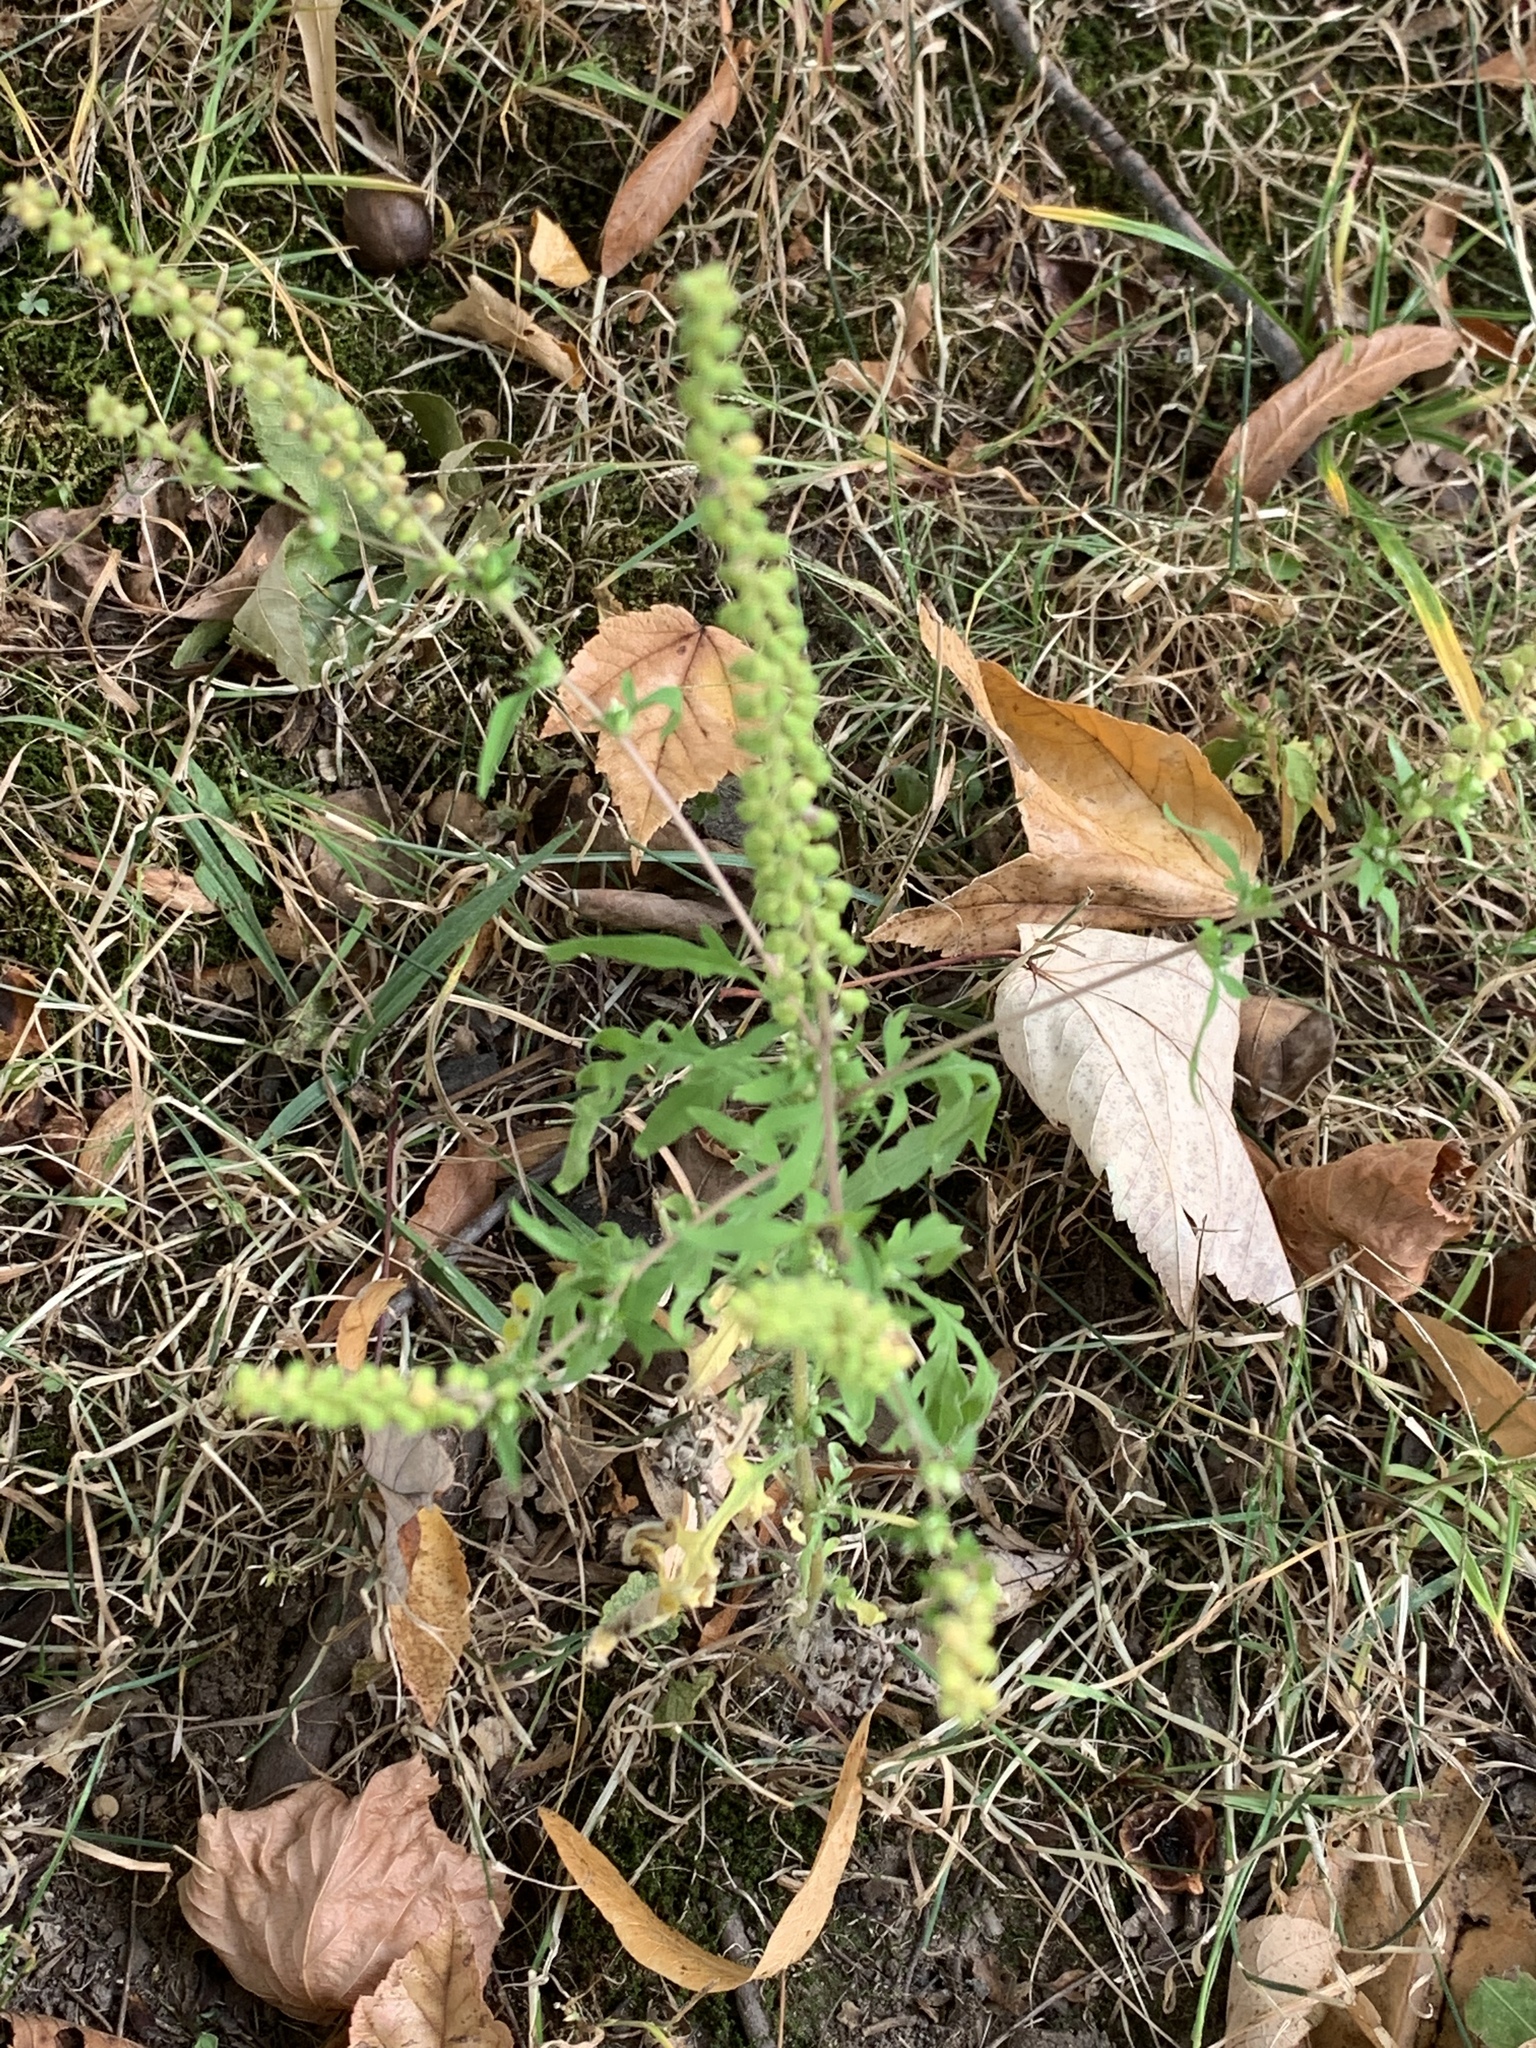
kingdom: Plantae
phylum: Tracheophyta
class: Magnoliopsida
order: Asterales
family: Asteraceae
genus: Ambrosia
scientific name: Ambrosia artemisiifolia
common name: Annual ragweed
